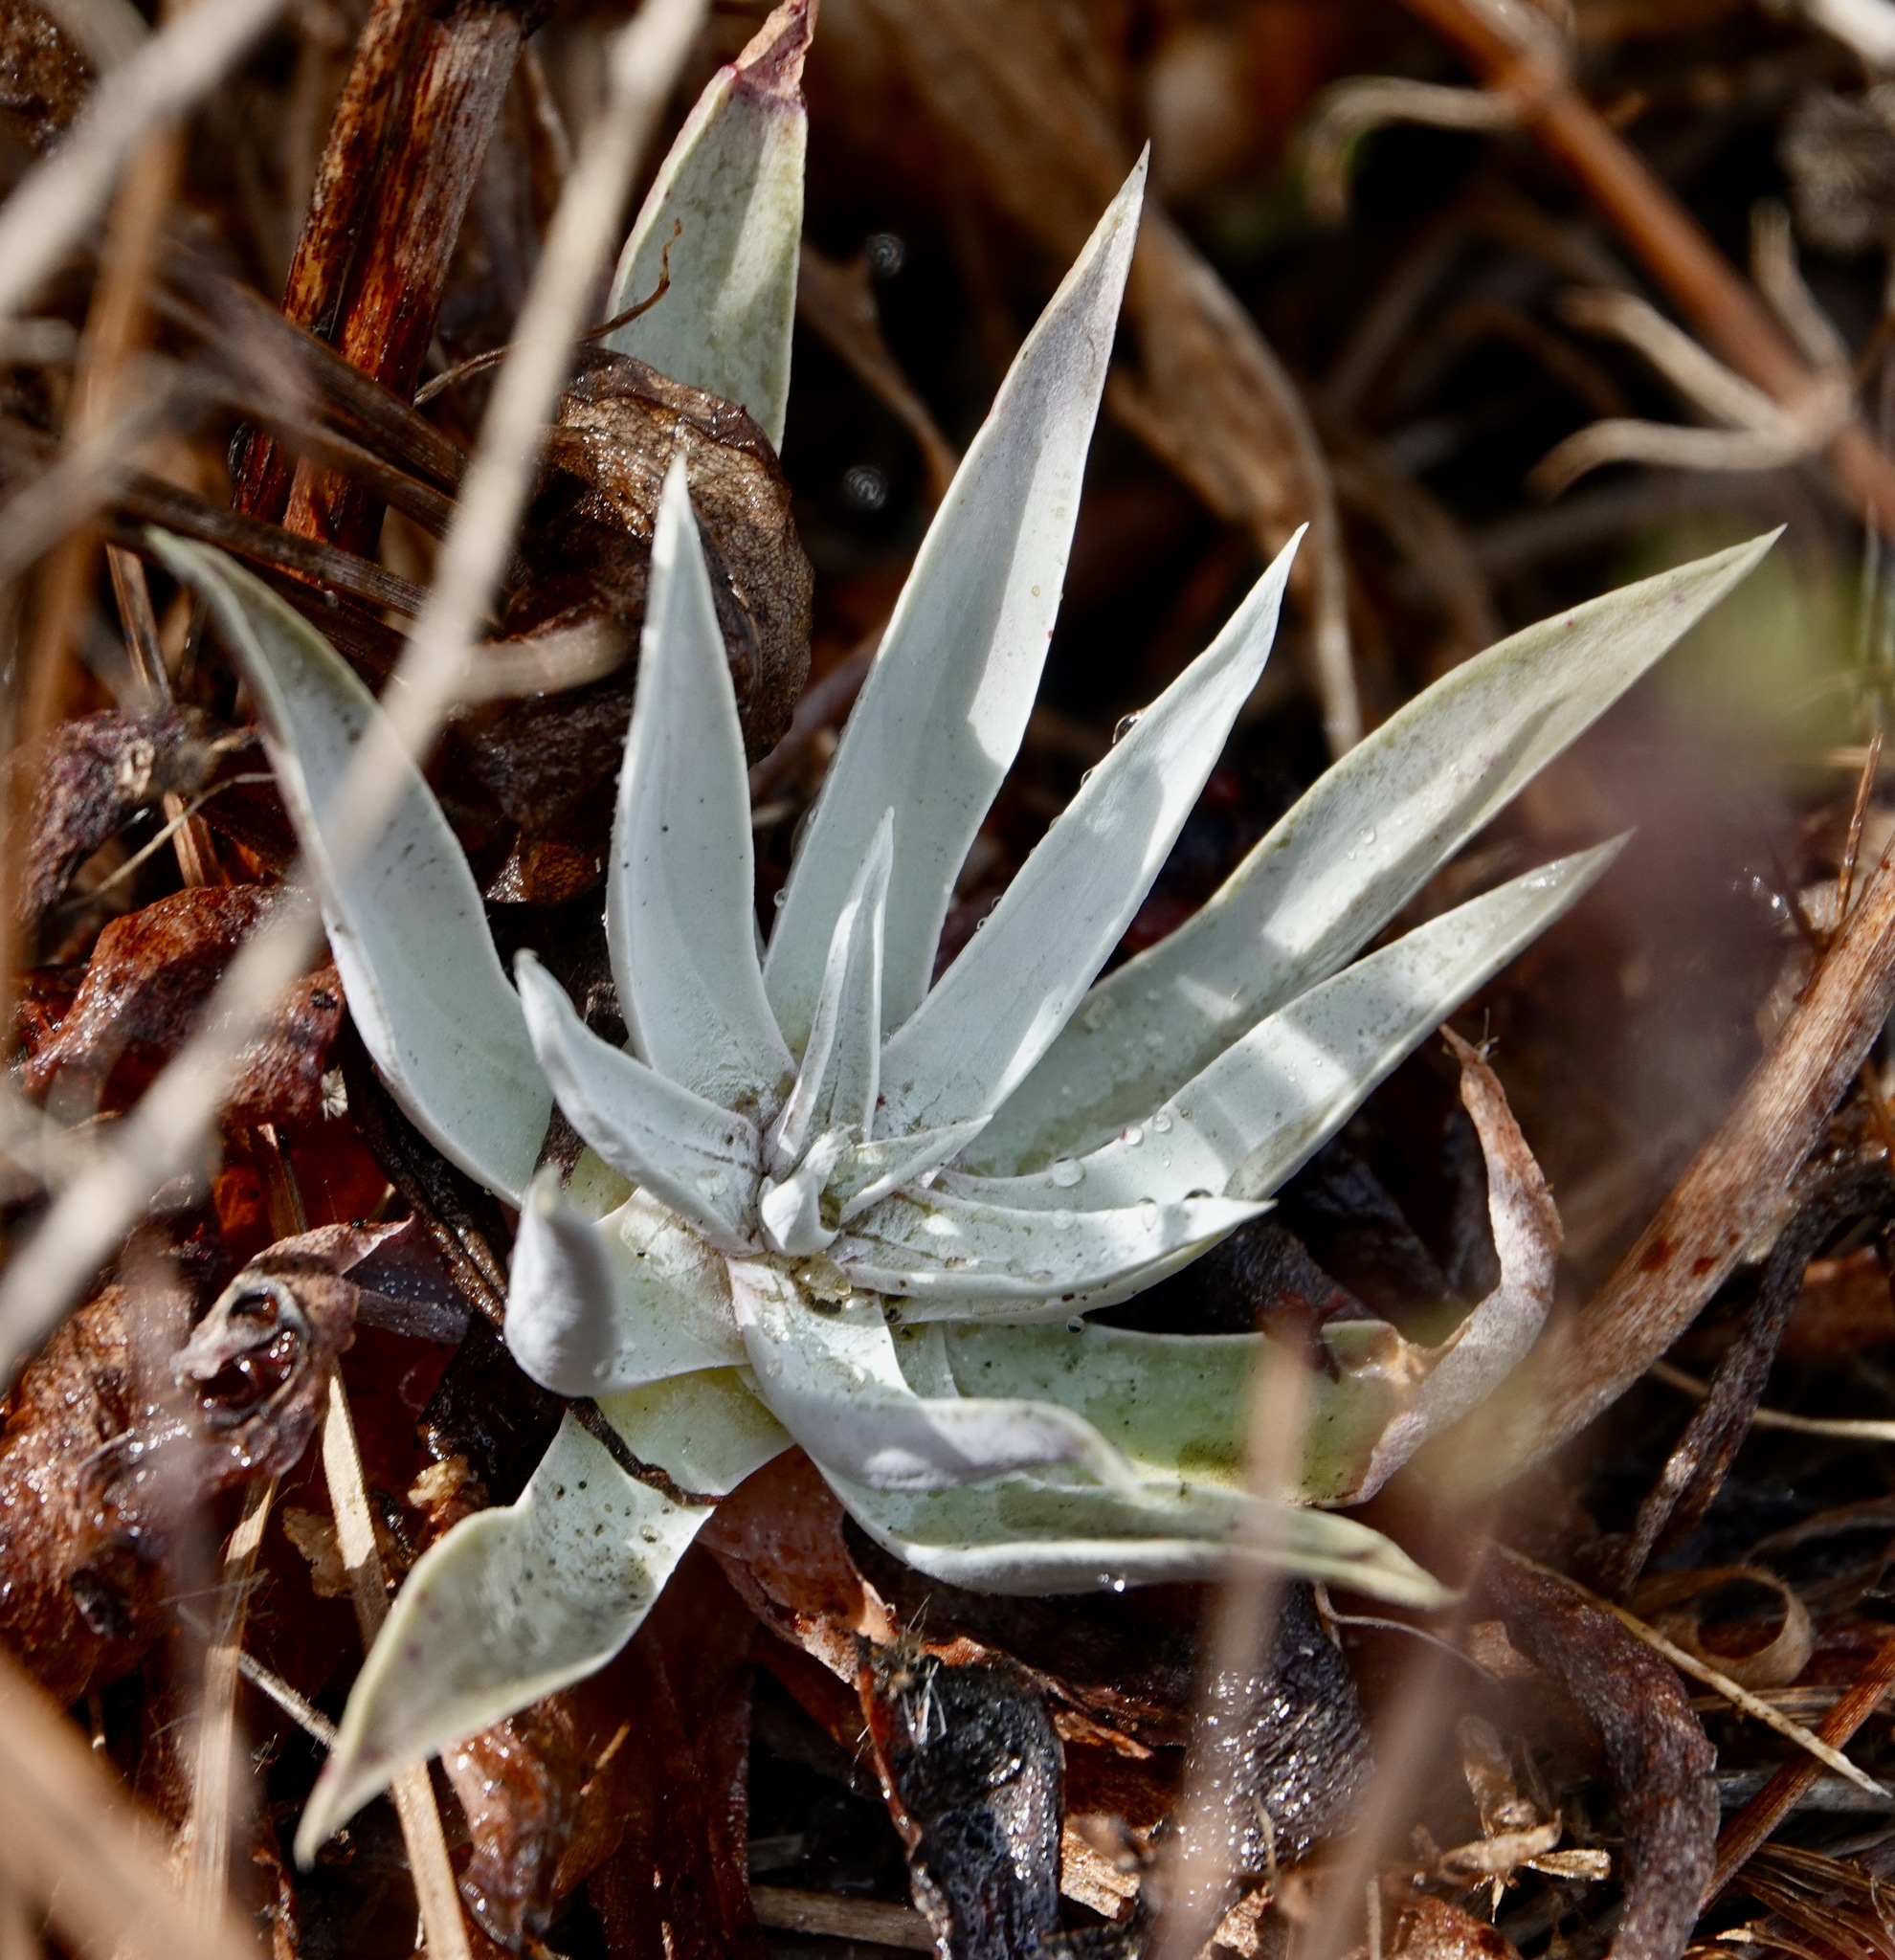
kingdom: Plantae
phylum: Tracheophyta
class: Magnoliopsida
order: Saxifragales
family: Crassulaceae
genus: Dudleya
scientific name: Dudleya lanceolata
